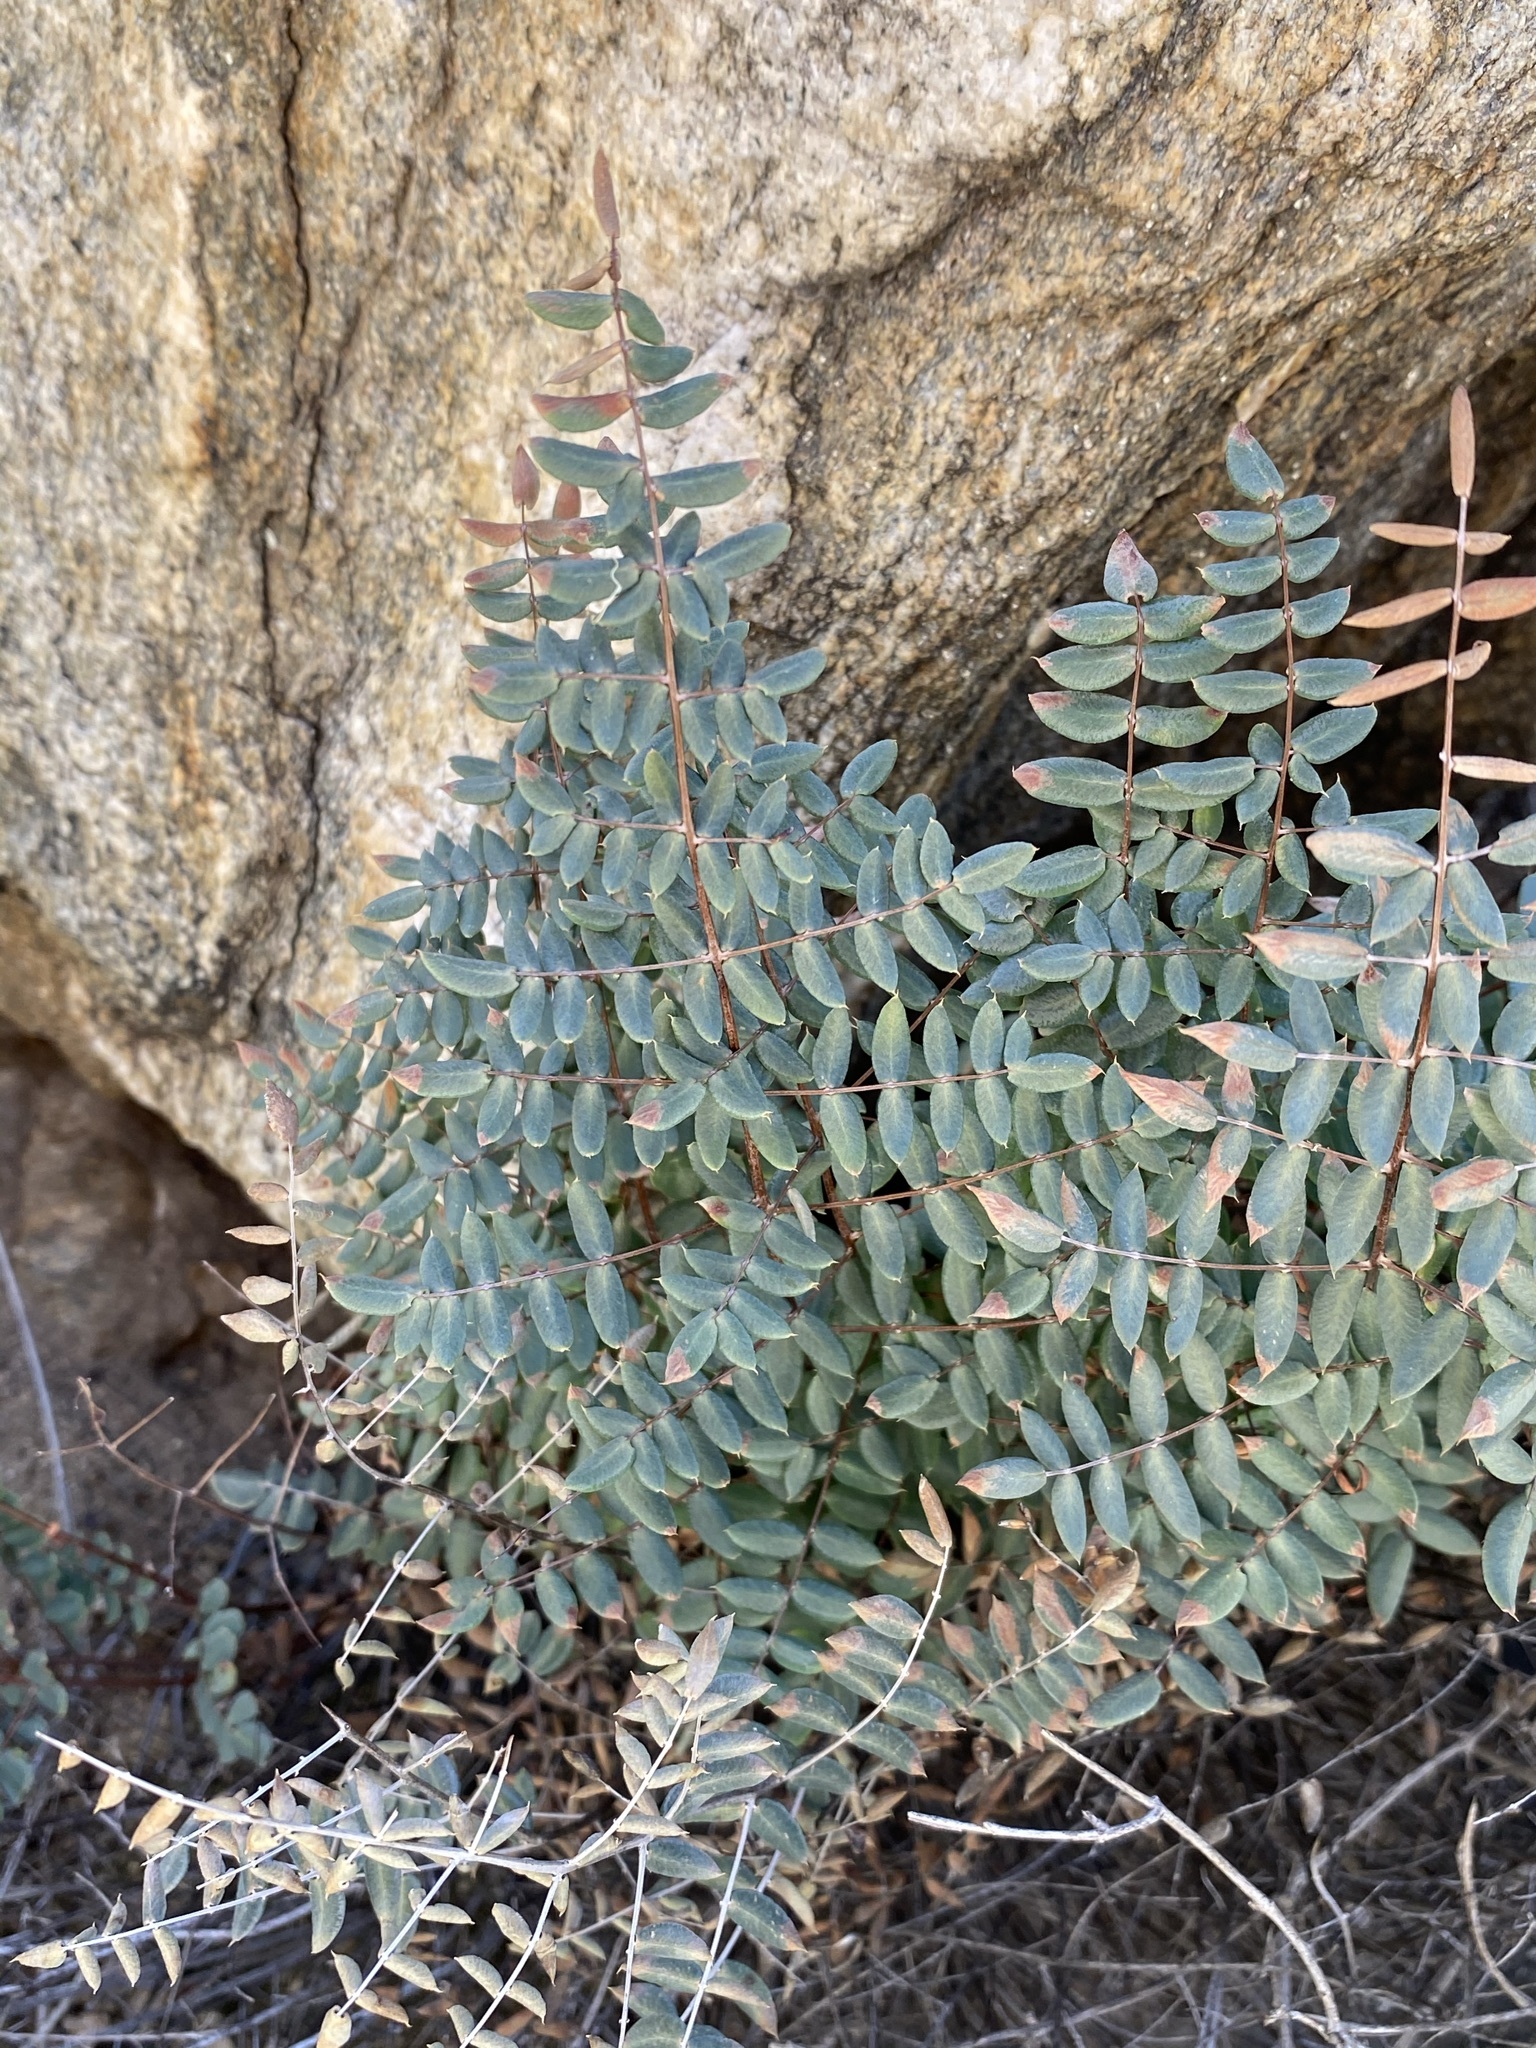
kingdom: Plantae
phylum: Tracheophyta
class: Polypodiopsida
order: Polypodiales
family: Pteridaceae
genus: Pellaea
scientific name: Pellaea truncata
